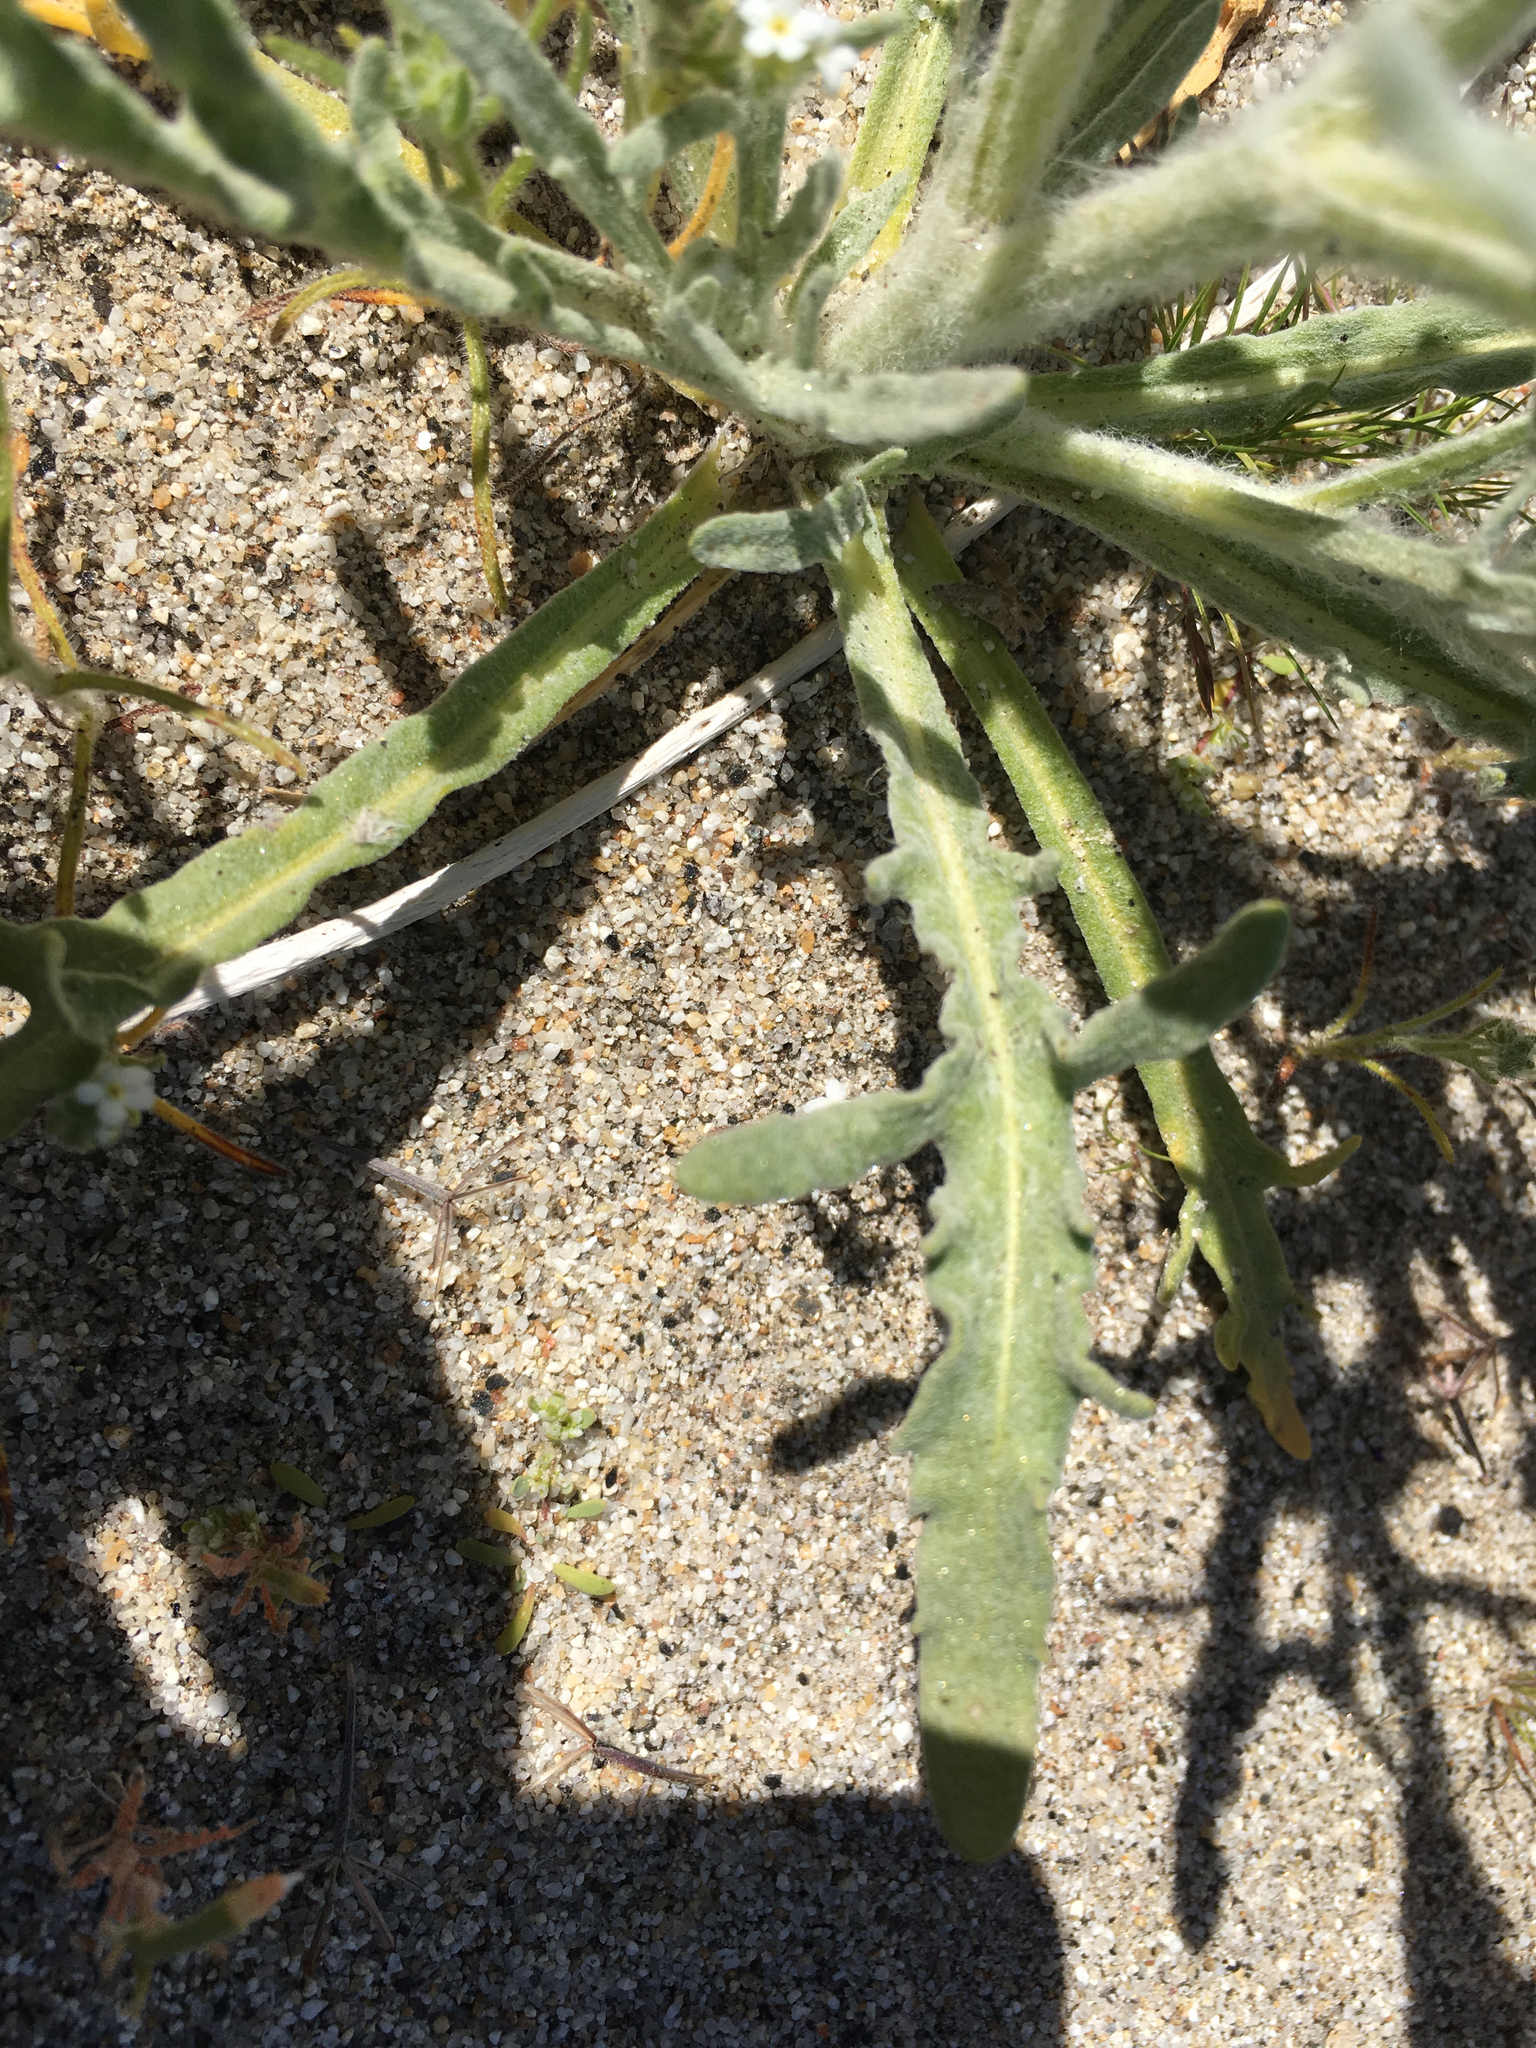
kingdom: Plantae
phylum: Tracheophyta
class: Magnoliopsida
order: Asterales
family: Asteraceae
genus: Baileya
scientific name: Baileya pauciradiata
